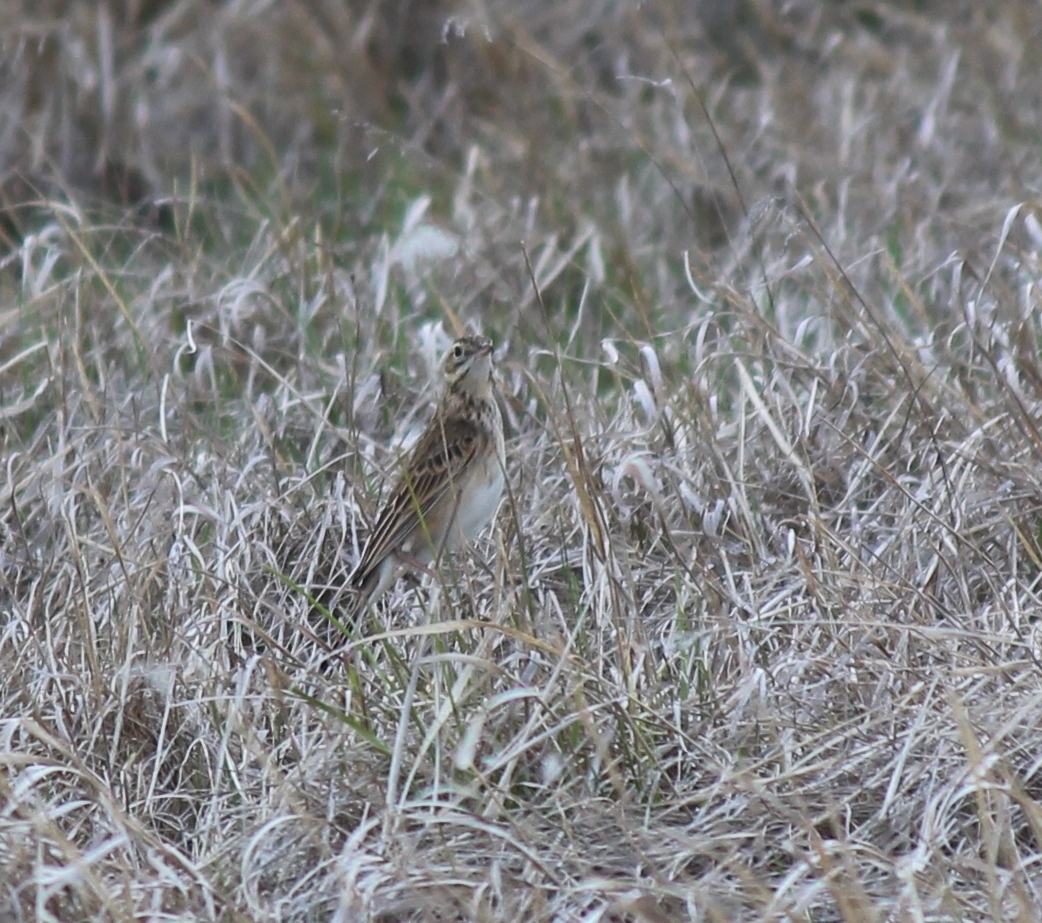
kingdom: Animalia
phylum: Chordata
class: Aves
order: Passeriformes
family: Motacillidae
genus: Anthus
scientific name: Anthus richardi
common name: Richard's pipit
